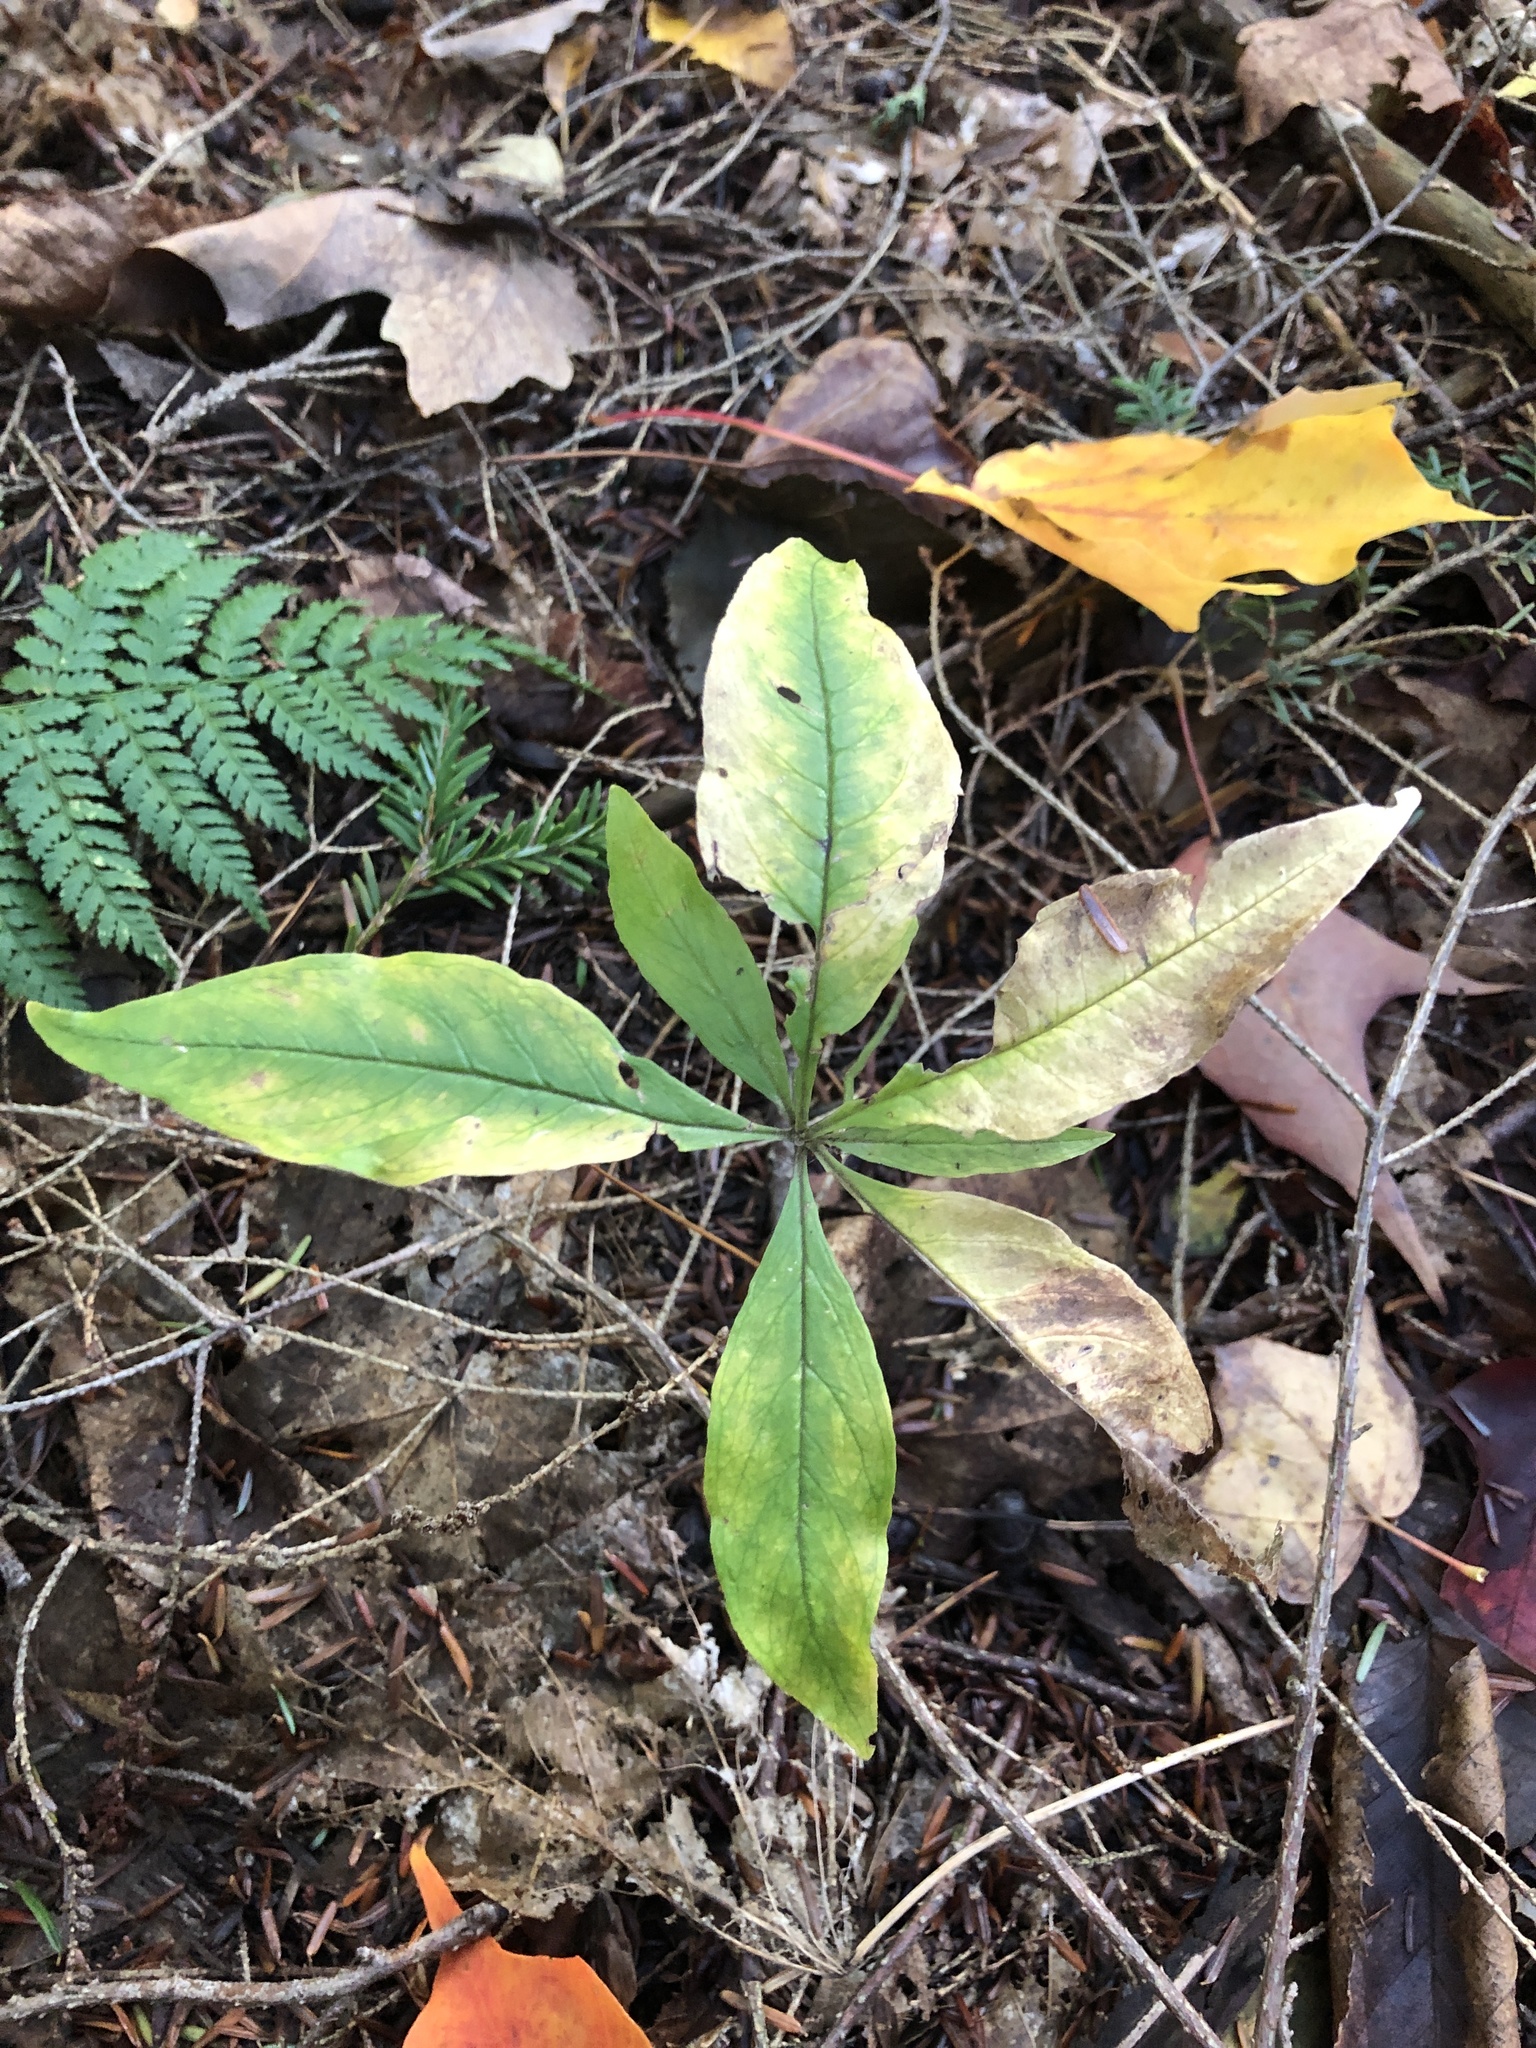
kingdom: Plantae
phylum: Tracheophyta
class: Magnoliopsida
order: Ericales
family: Primulaceae
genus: Lysimachia
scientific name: Lysimachia borealis
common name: American starflower
